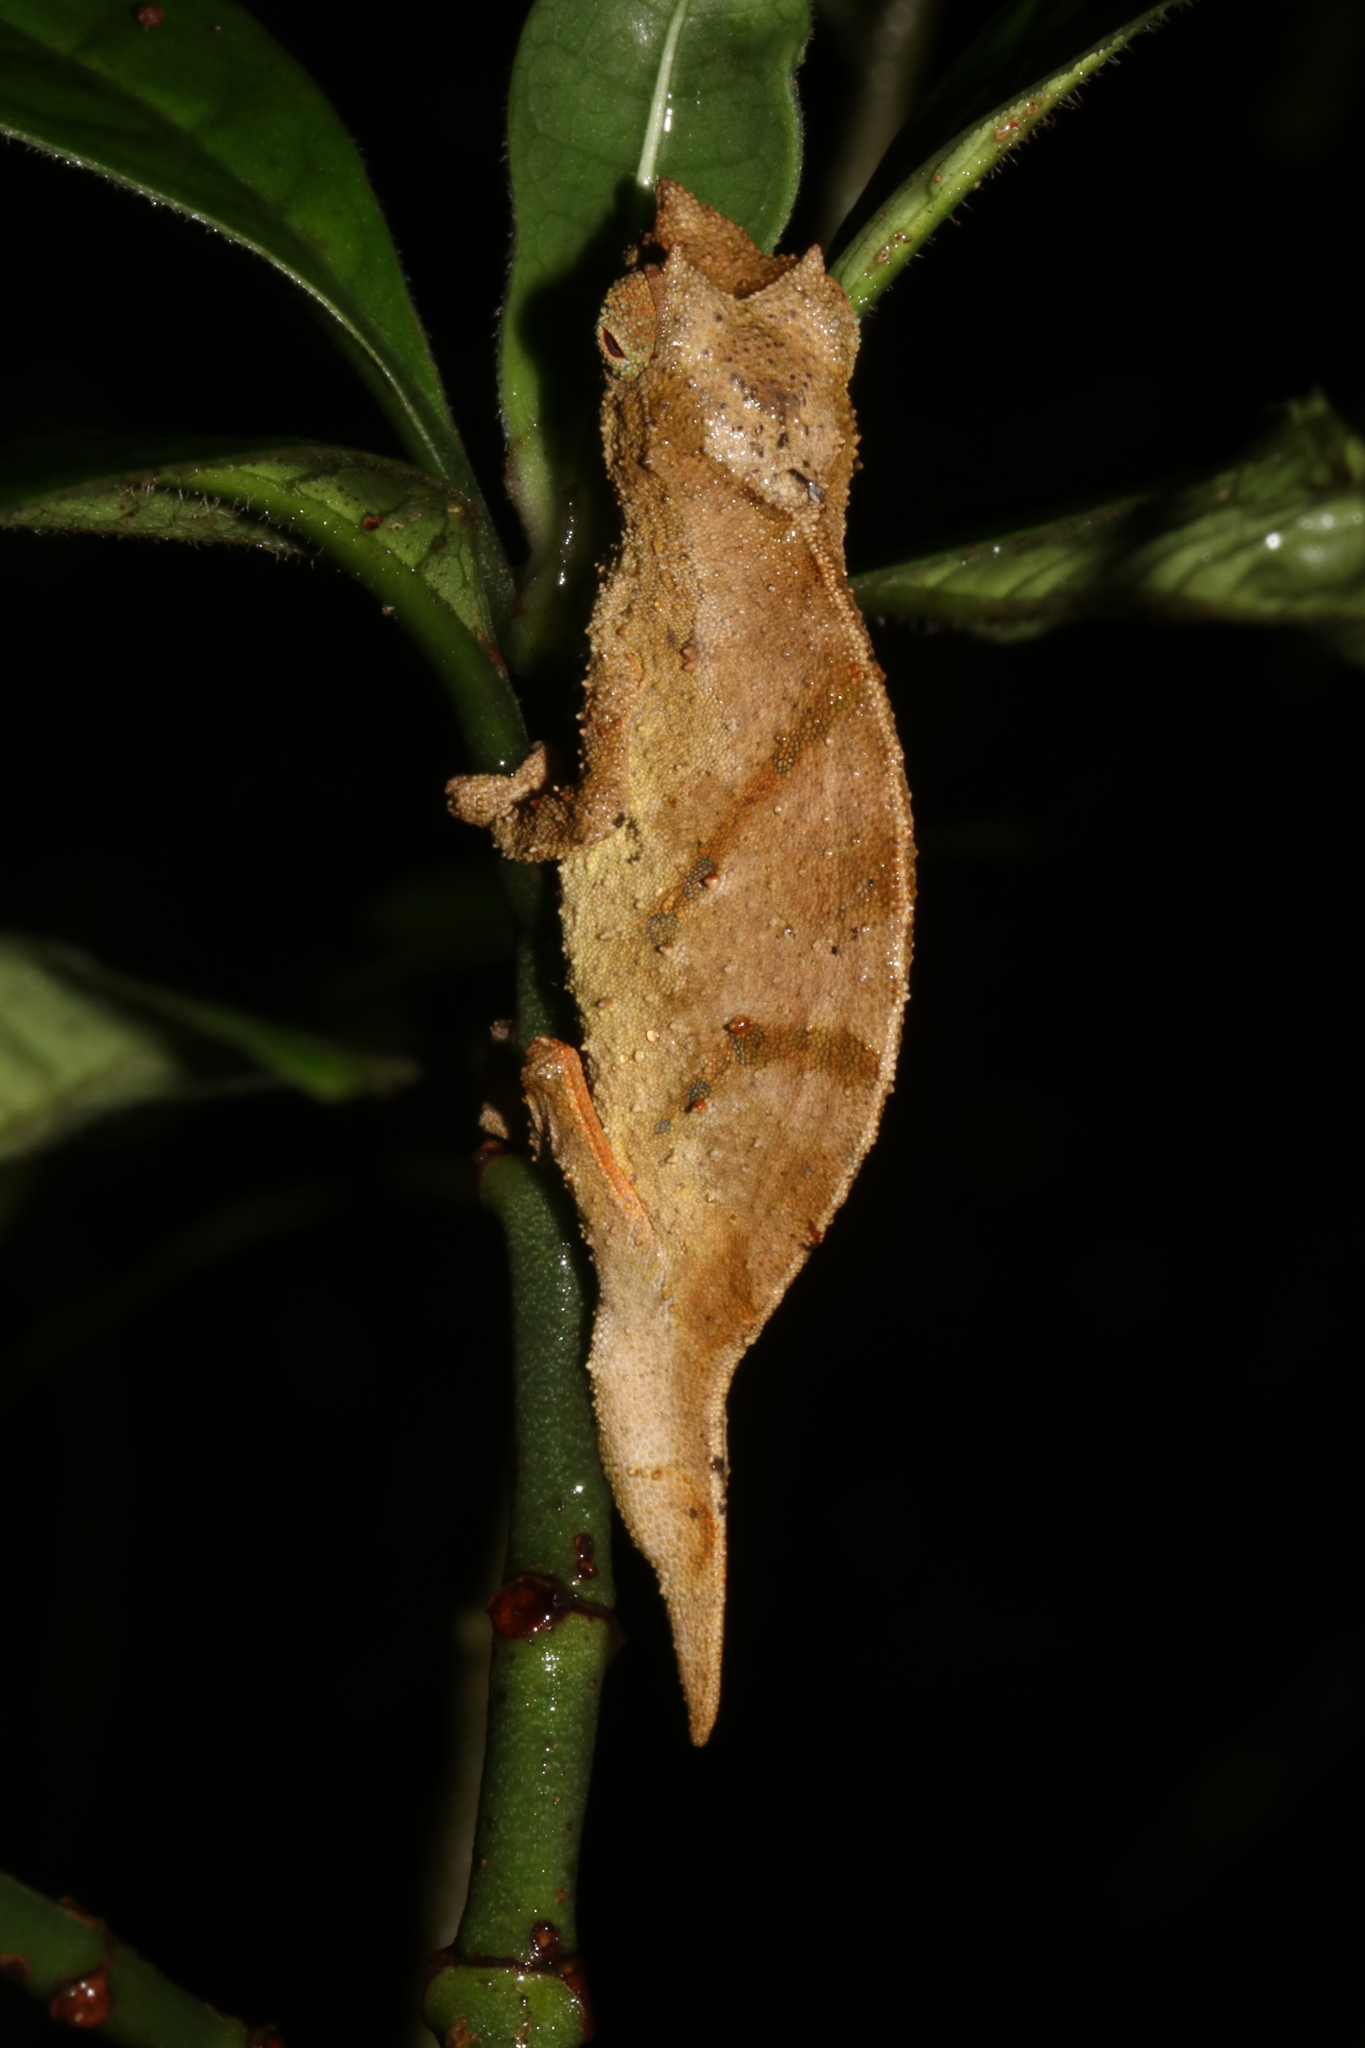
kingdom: Animalia
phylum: Chordata
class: Squamata
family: Chamaeleonidae
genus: Rhampholeon
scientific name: Rhampholeon nchisiensis
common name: South african stumptail chameleon
